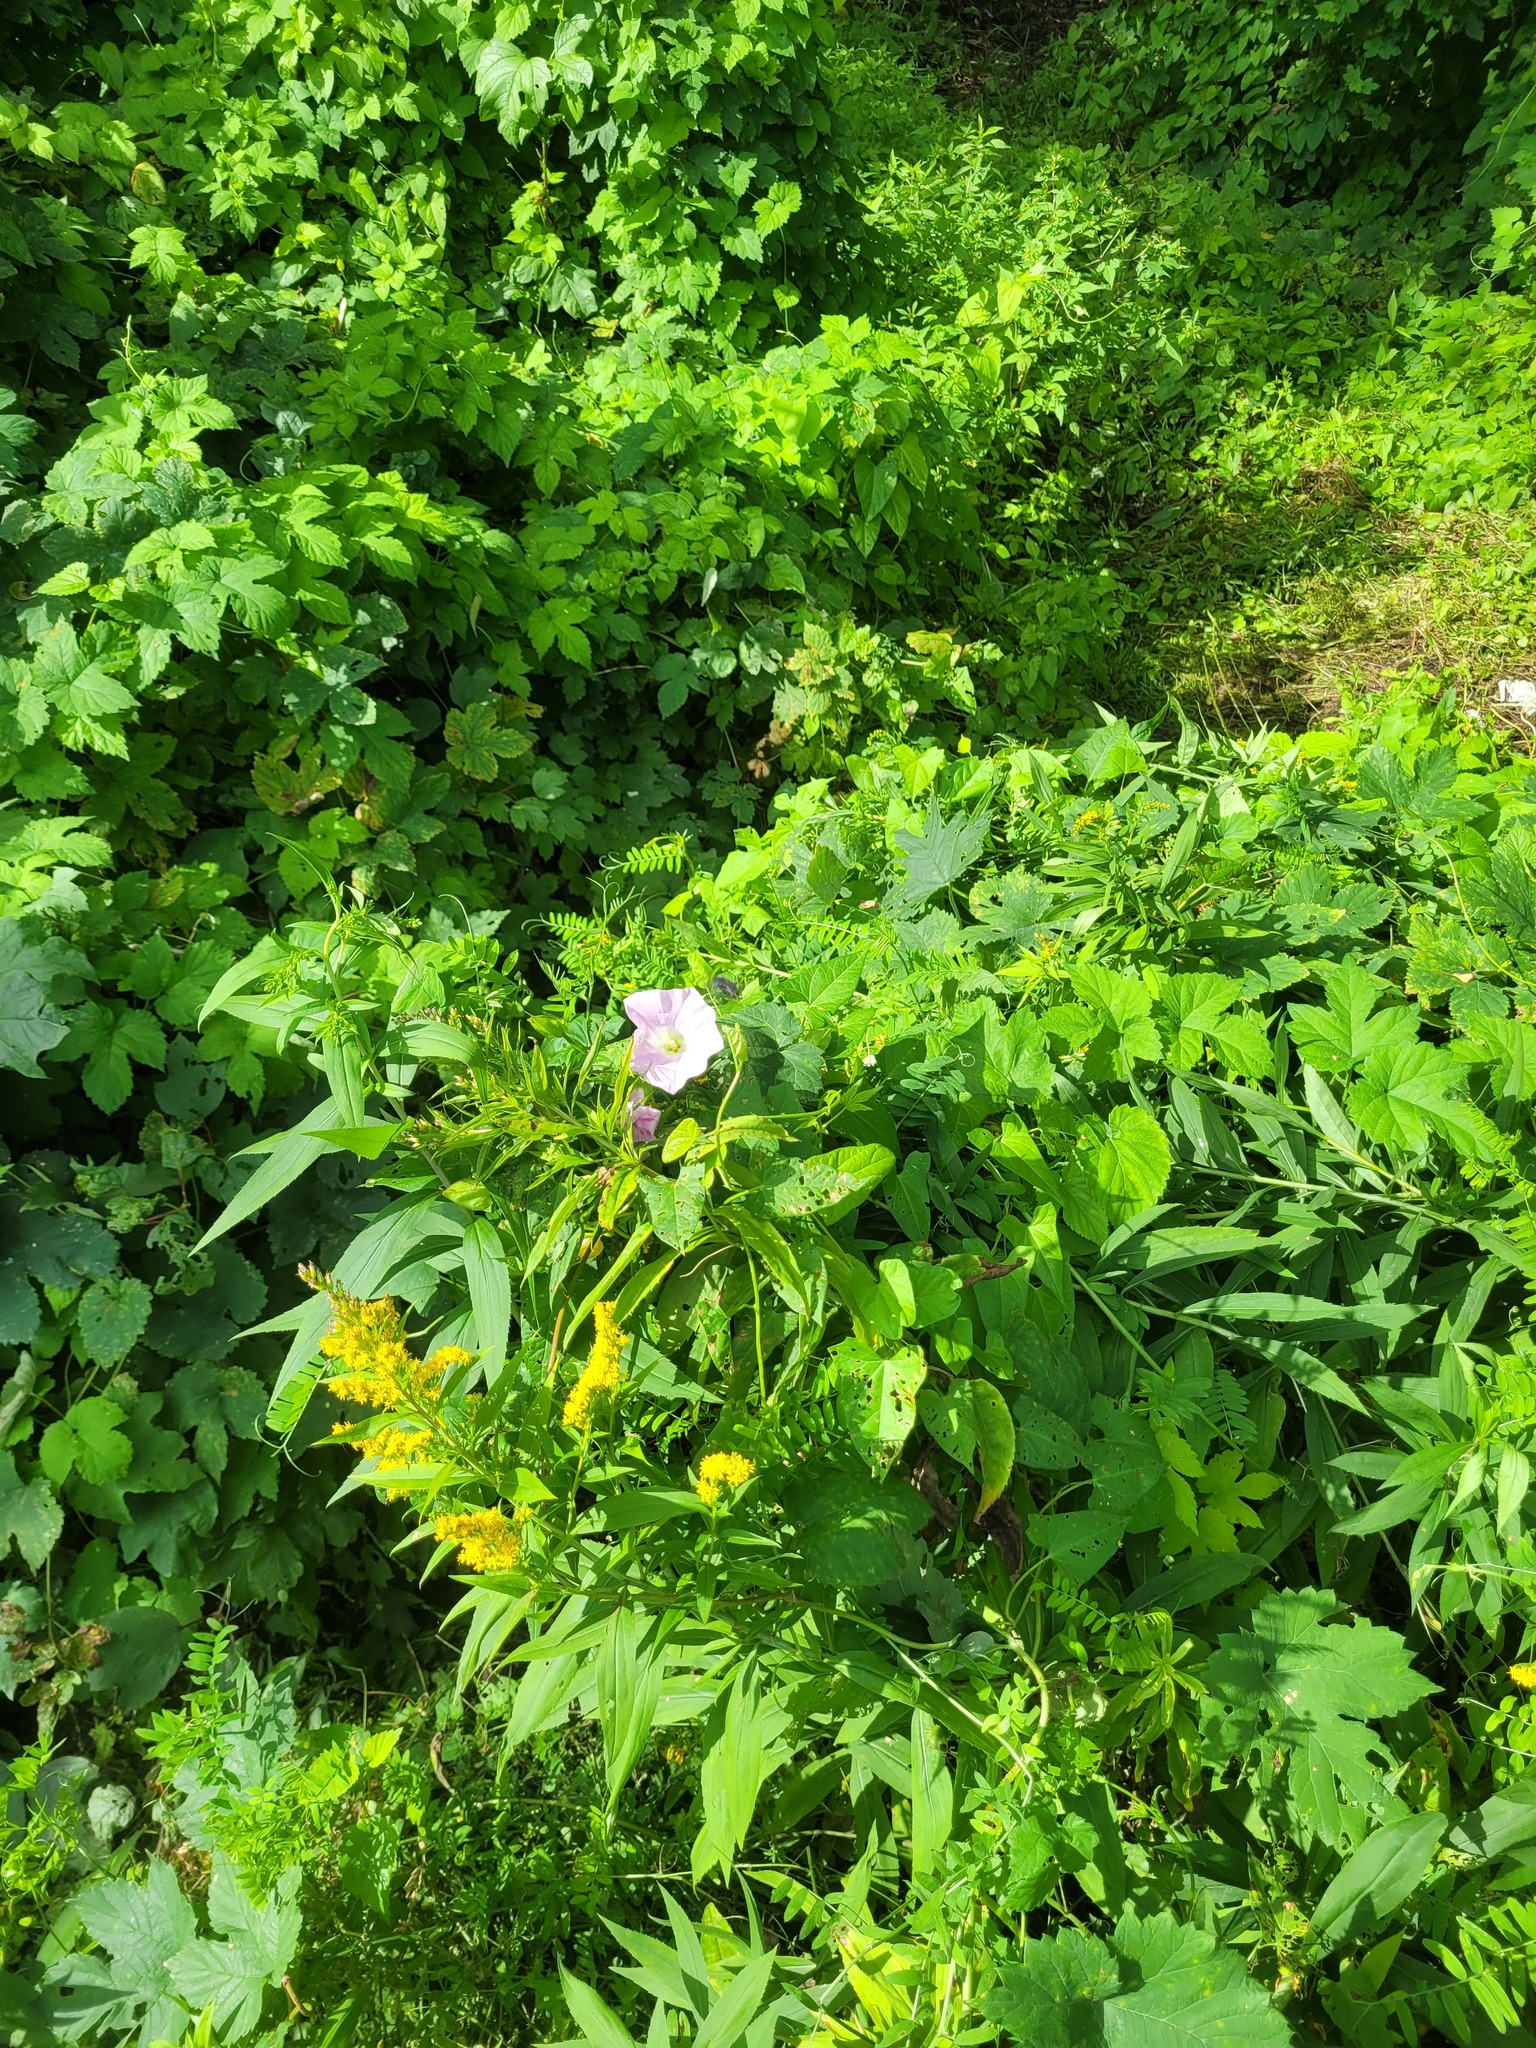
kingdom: Plantae
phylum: Tracheophyta
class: Magnoliopsida
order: Solanales
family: Convolvulaceae
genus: Calystegia
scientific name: Calystegia sepium
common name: Hedge bindweed
